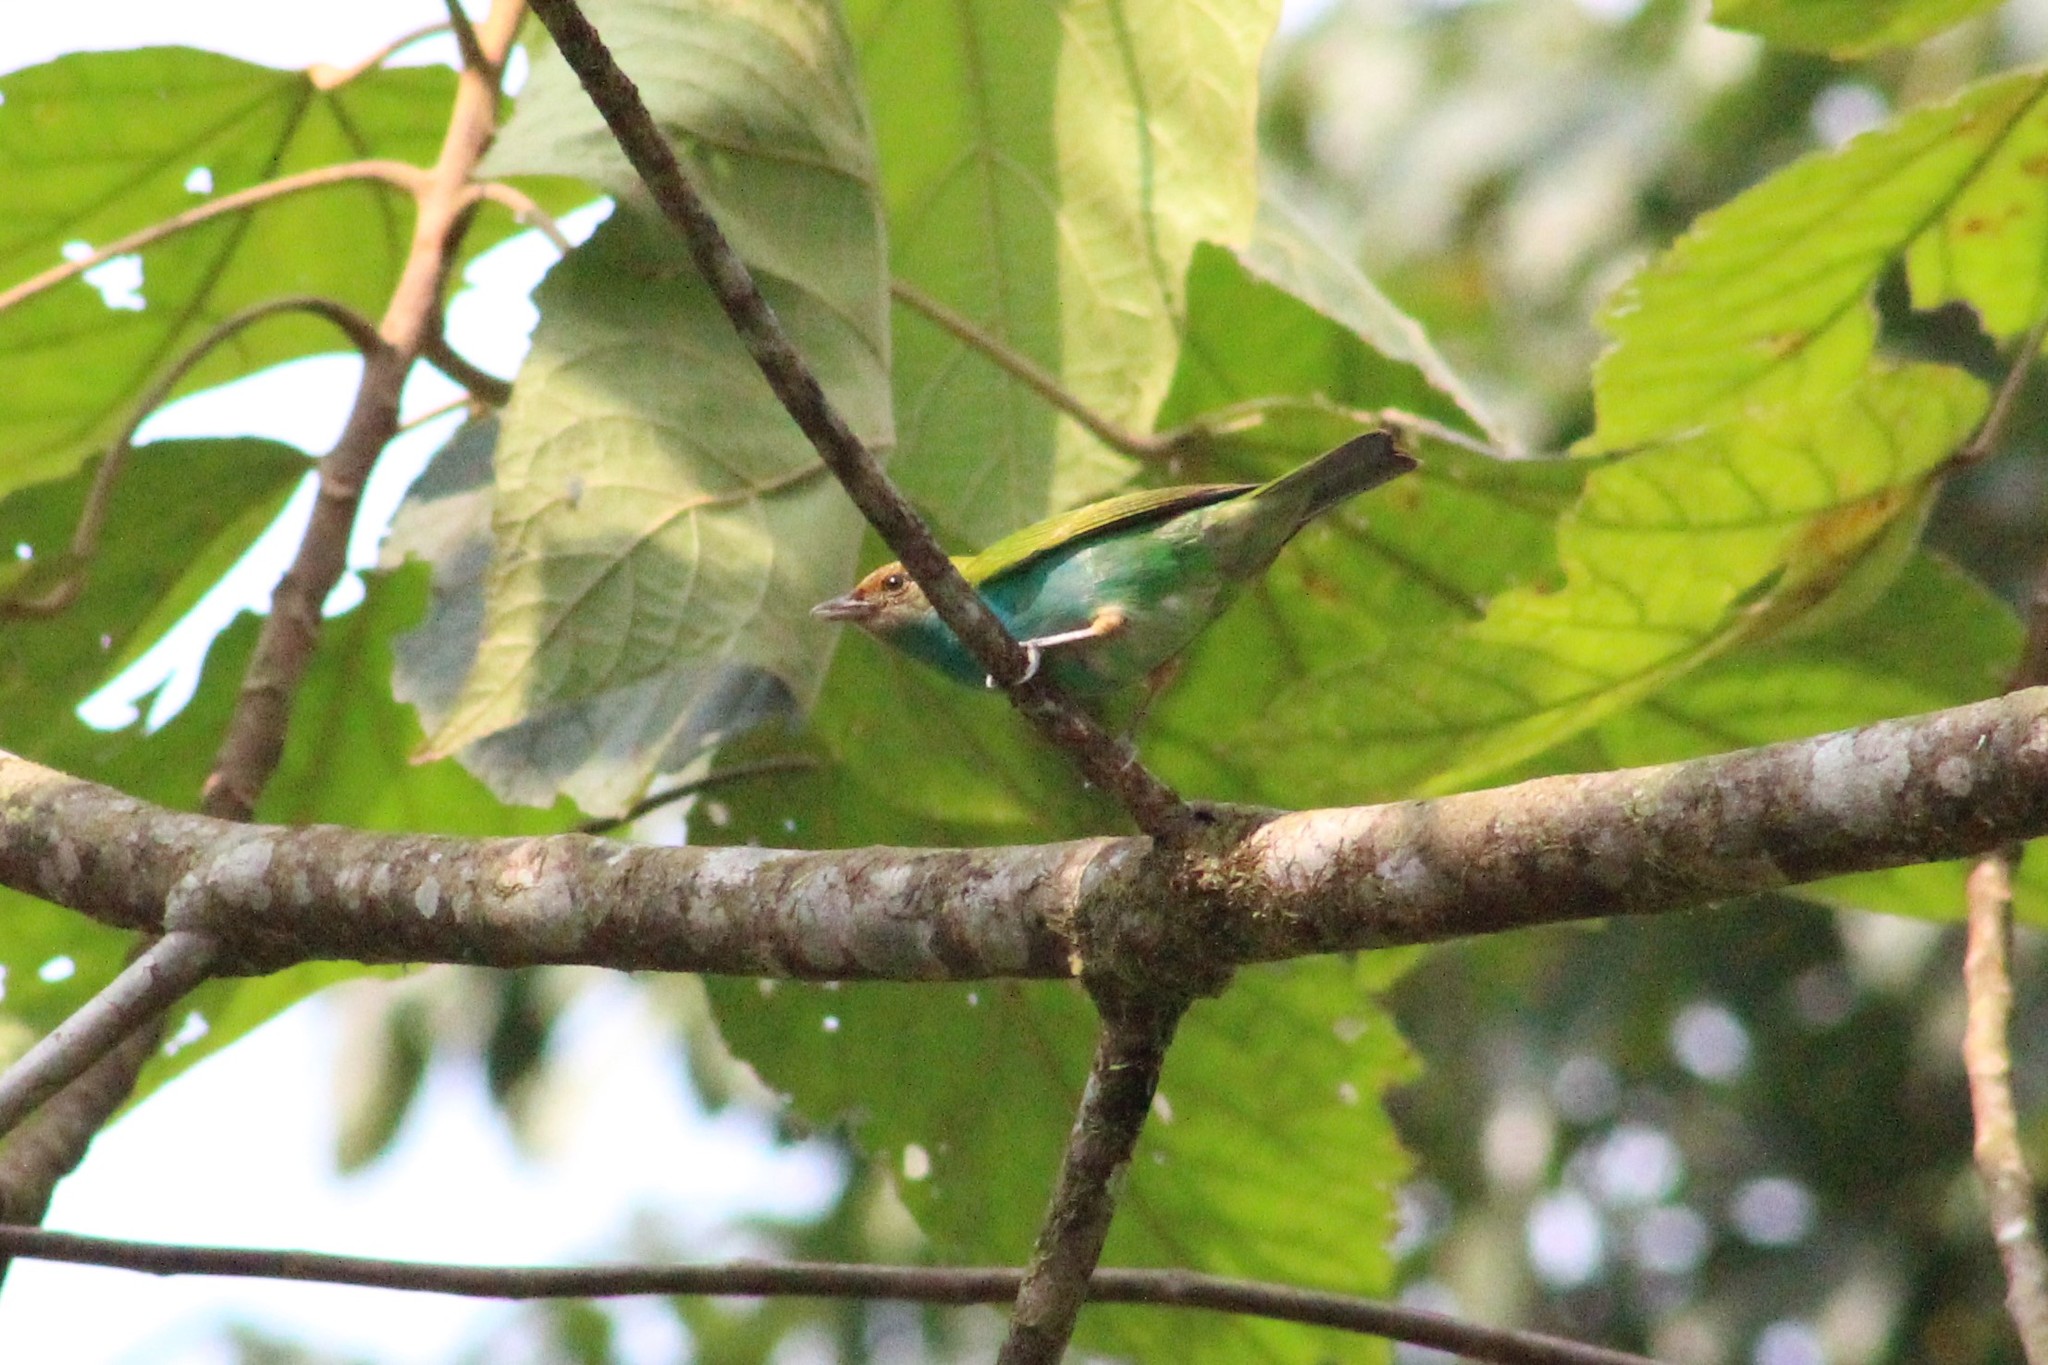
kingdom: Animalia
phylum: Chordata
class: Aves
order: Passeriformes
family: Thraupidae
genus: Tangara
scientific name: Tangara gyrola
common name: Bay-headed tanager
